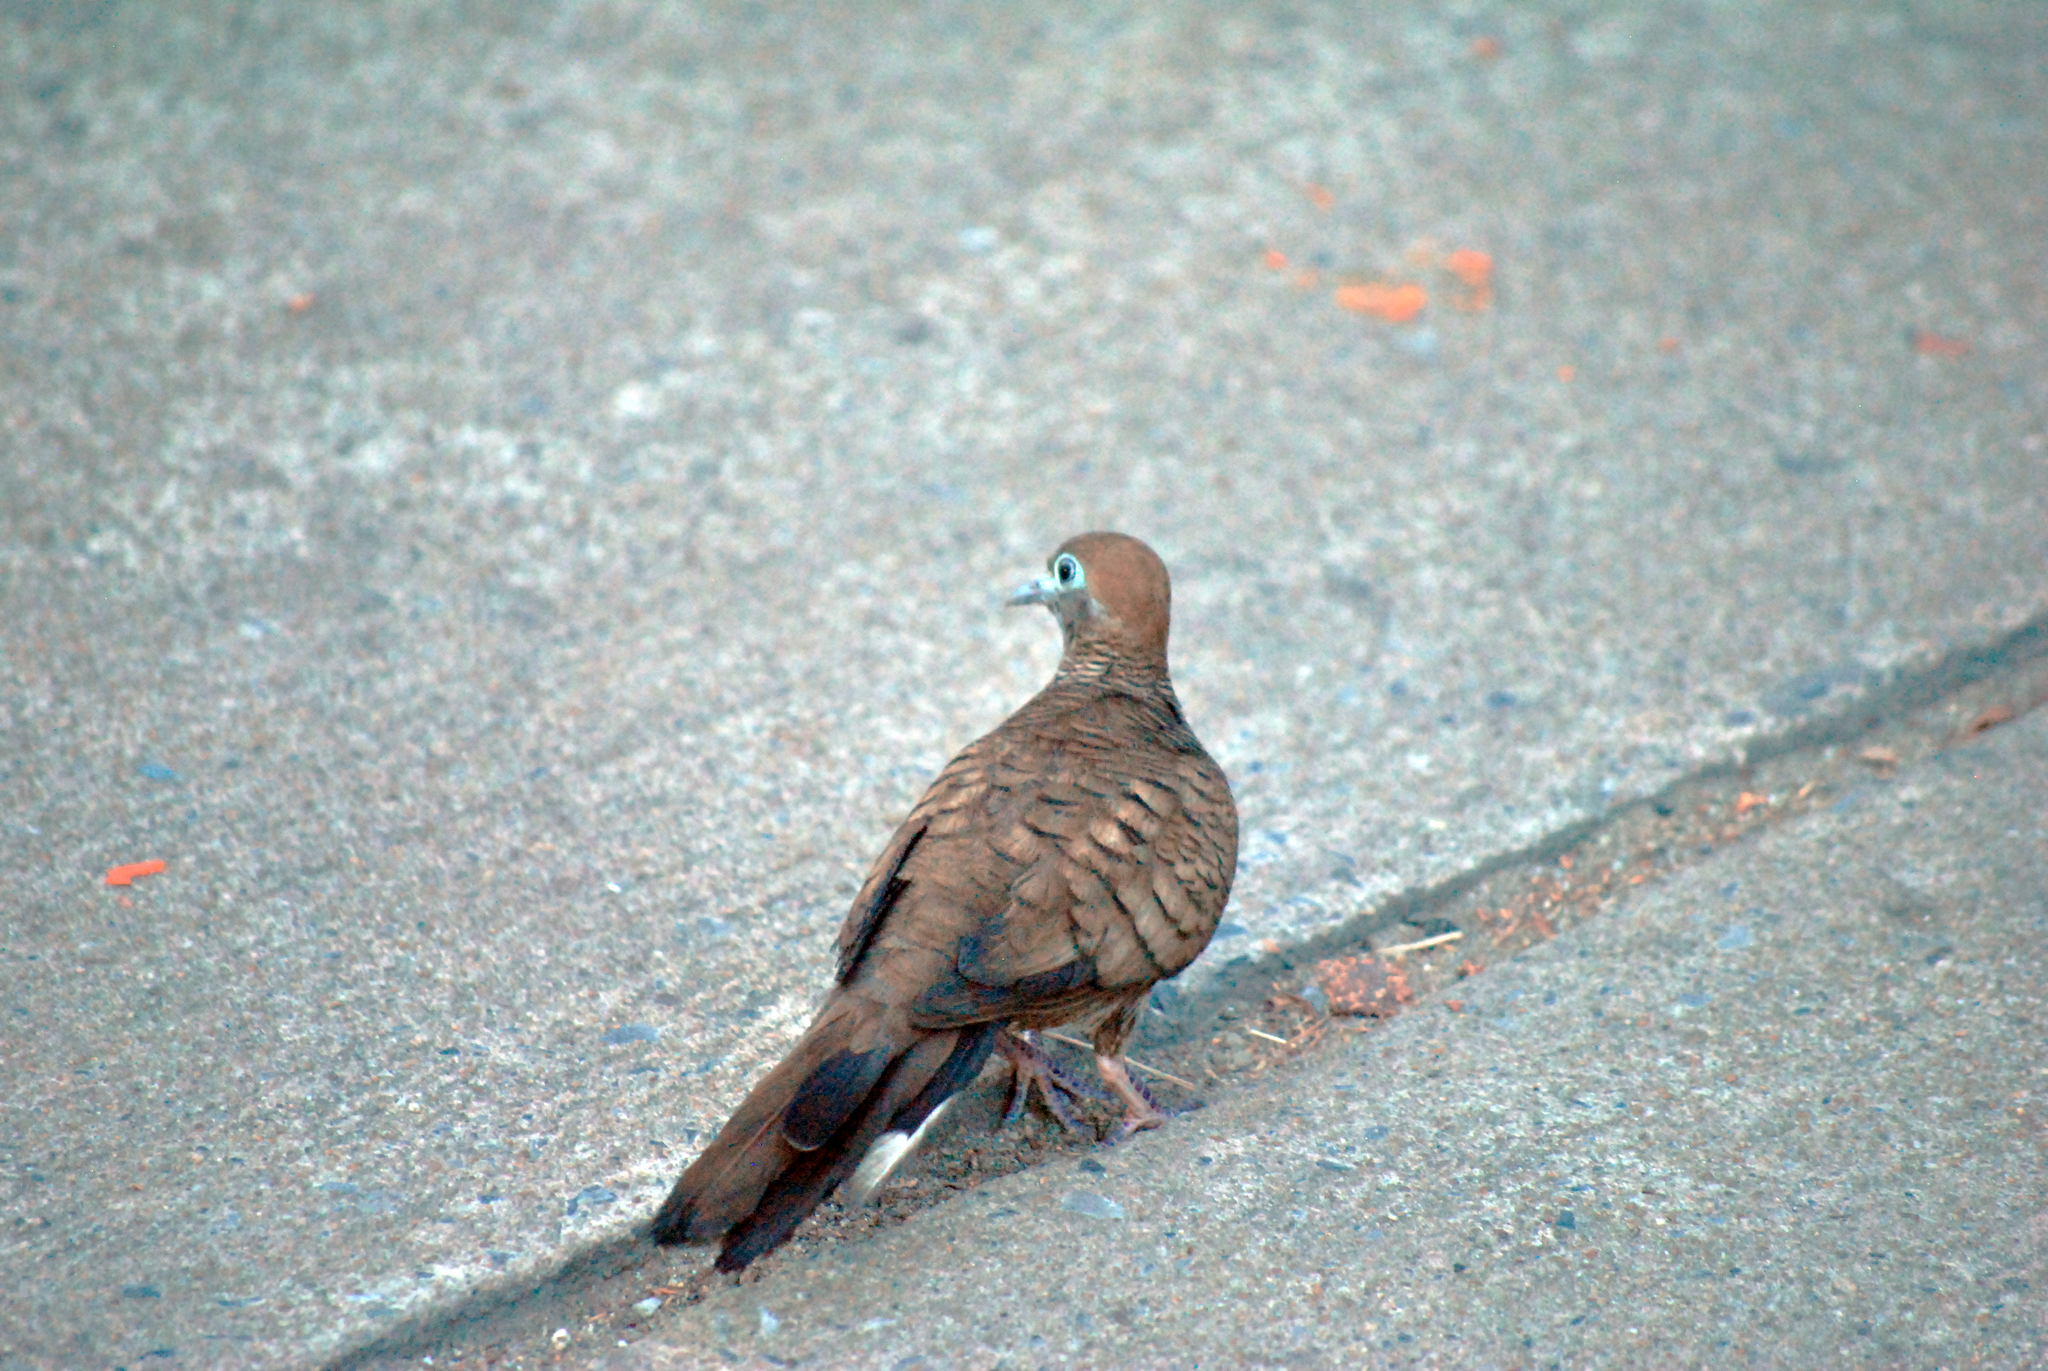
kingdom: Animalia
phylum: Chordata
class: Aves
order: Columbiformes
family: Columbidae
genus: Geopelia
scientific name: Geopelia striata
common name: Zebra dove
